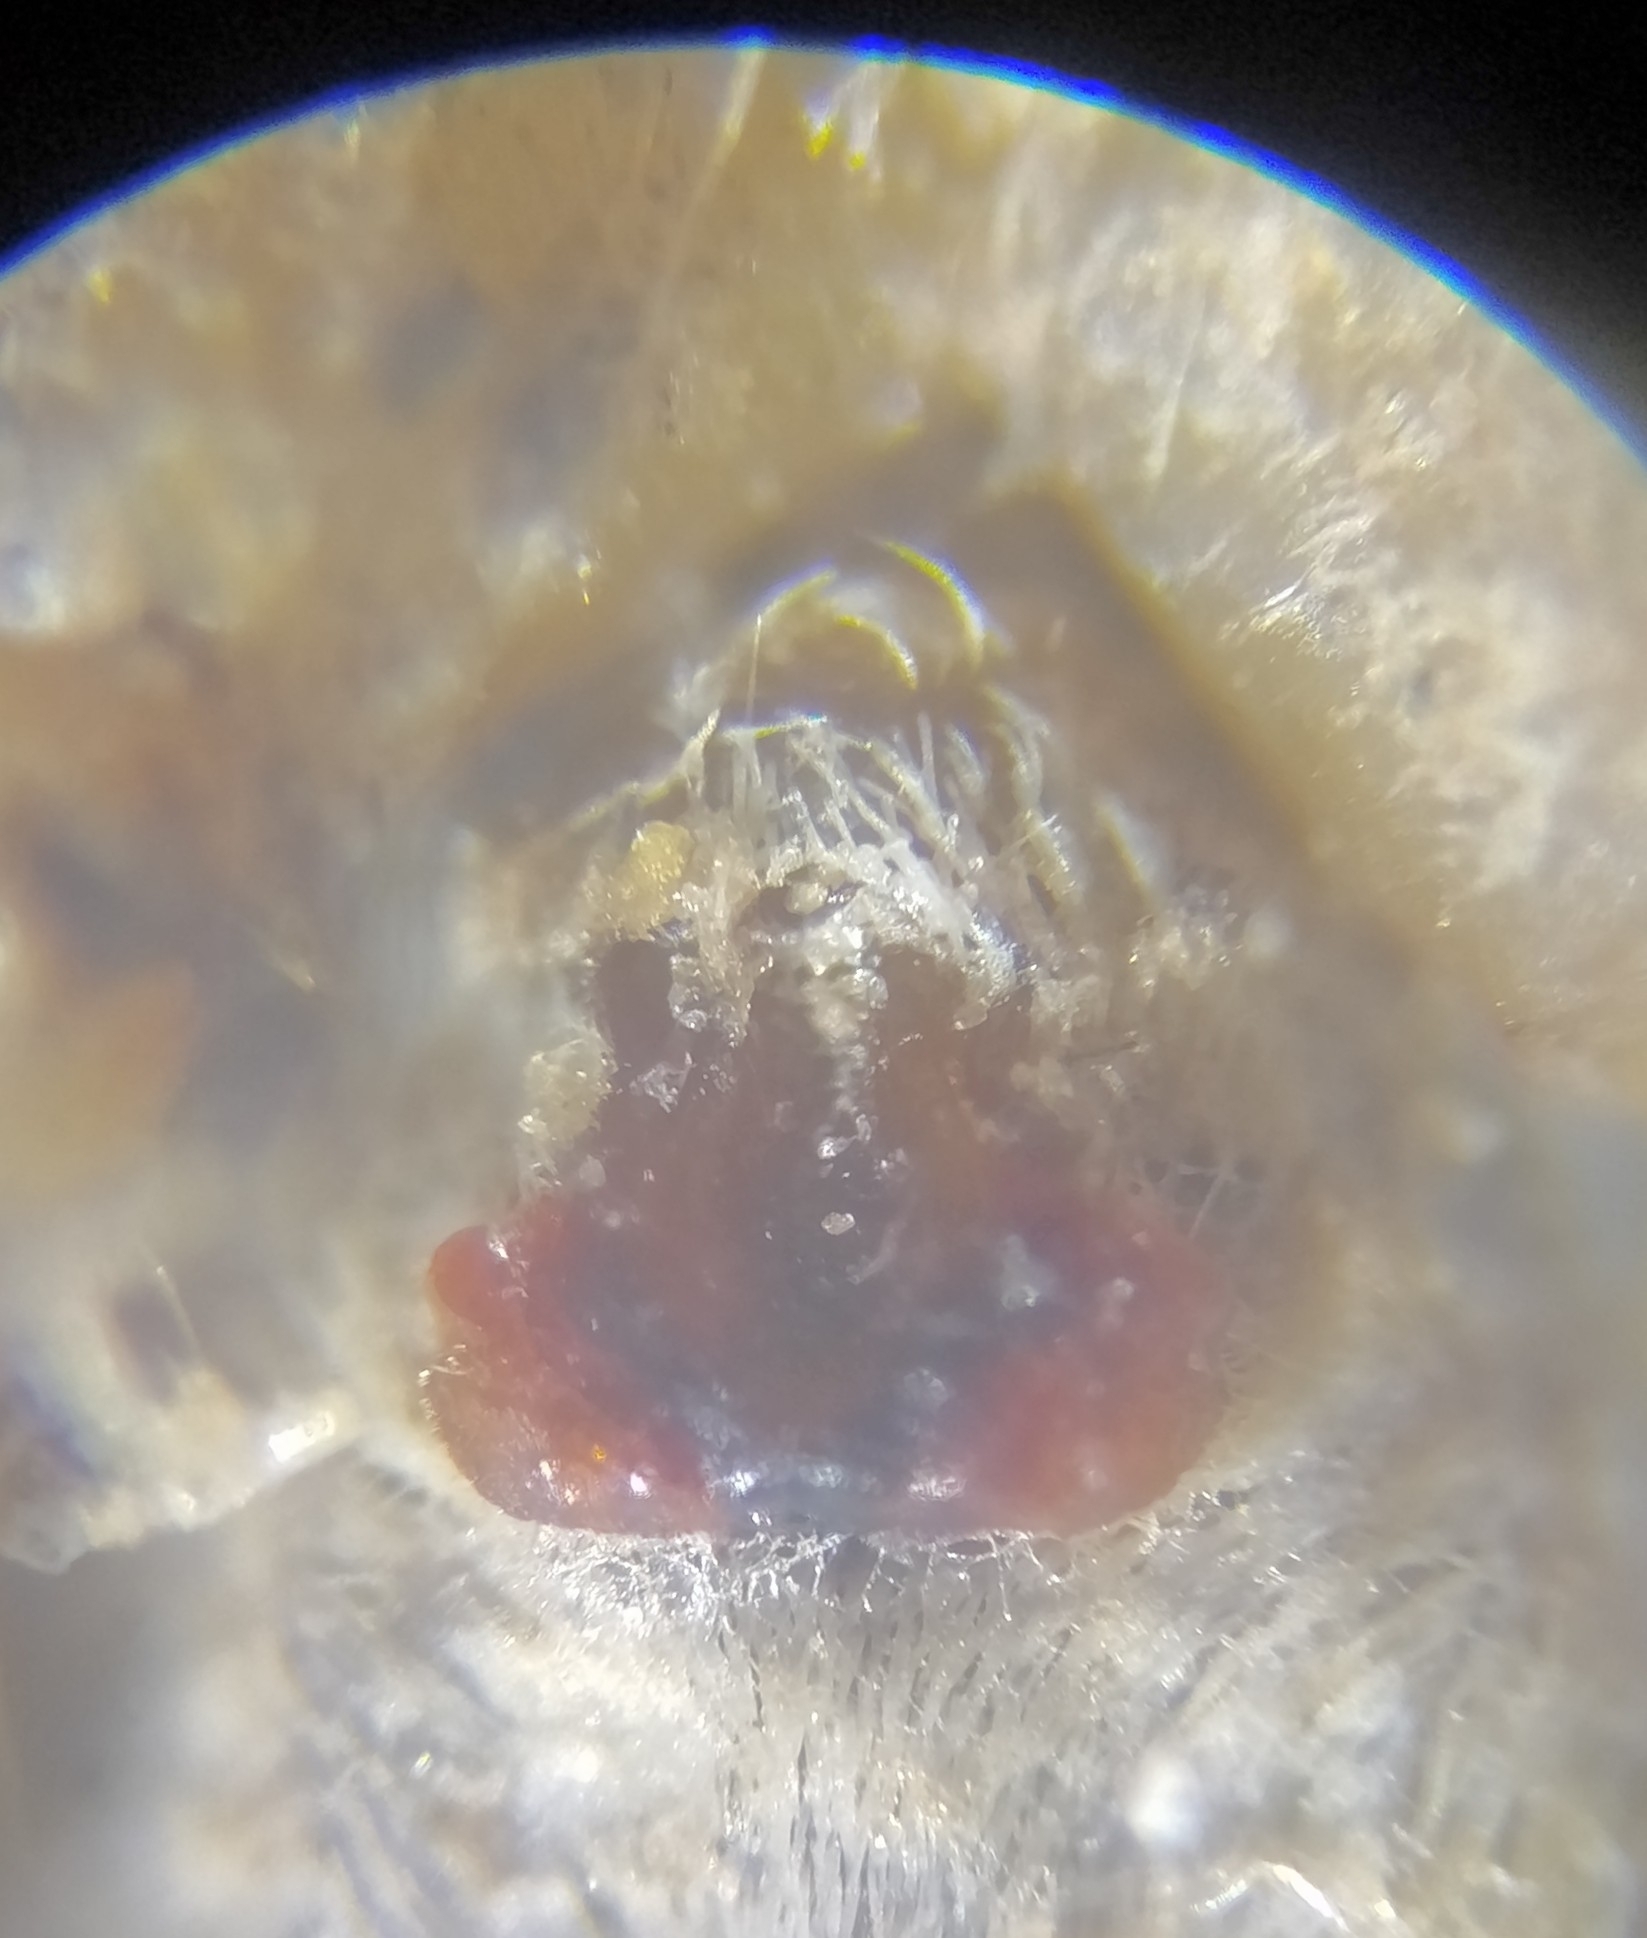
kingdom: Animalia
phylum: Arthropoda
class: Arachnida
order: Araneae
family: Lycosidae
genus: Pardosa
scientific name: Pardosa palustris
